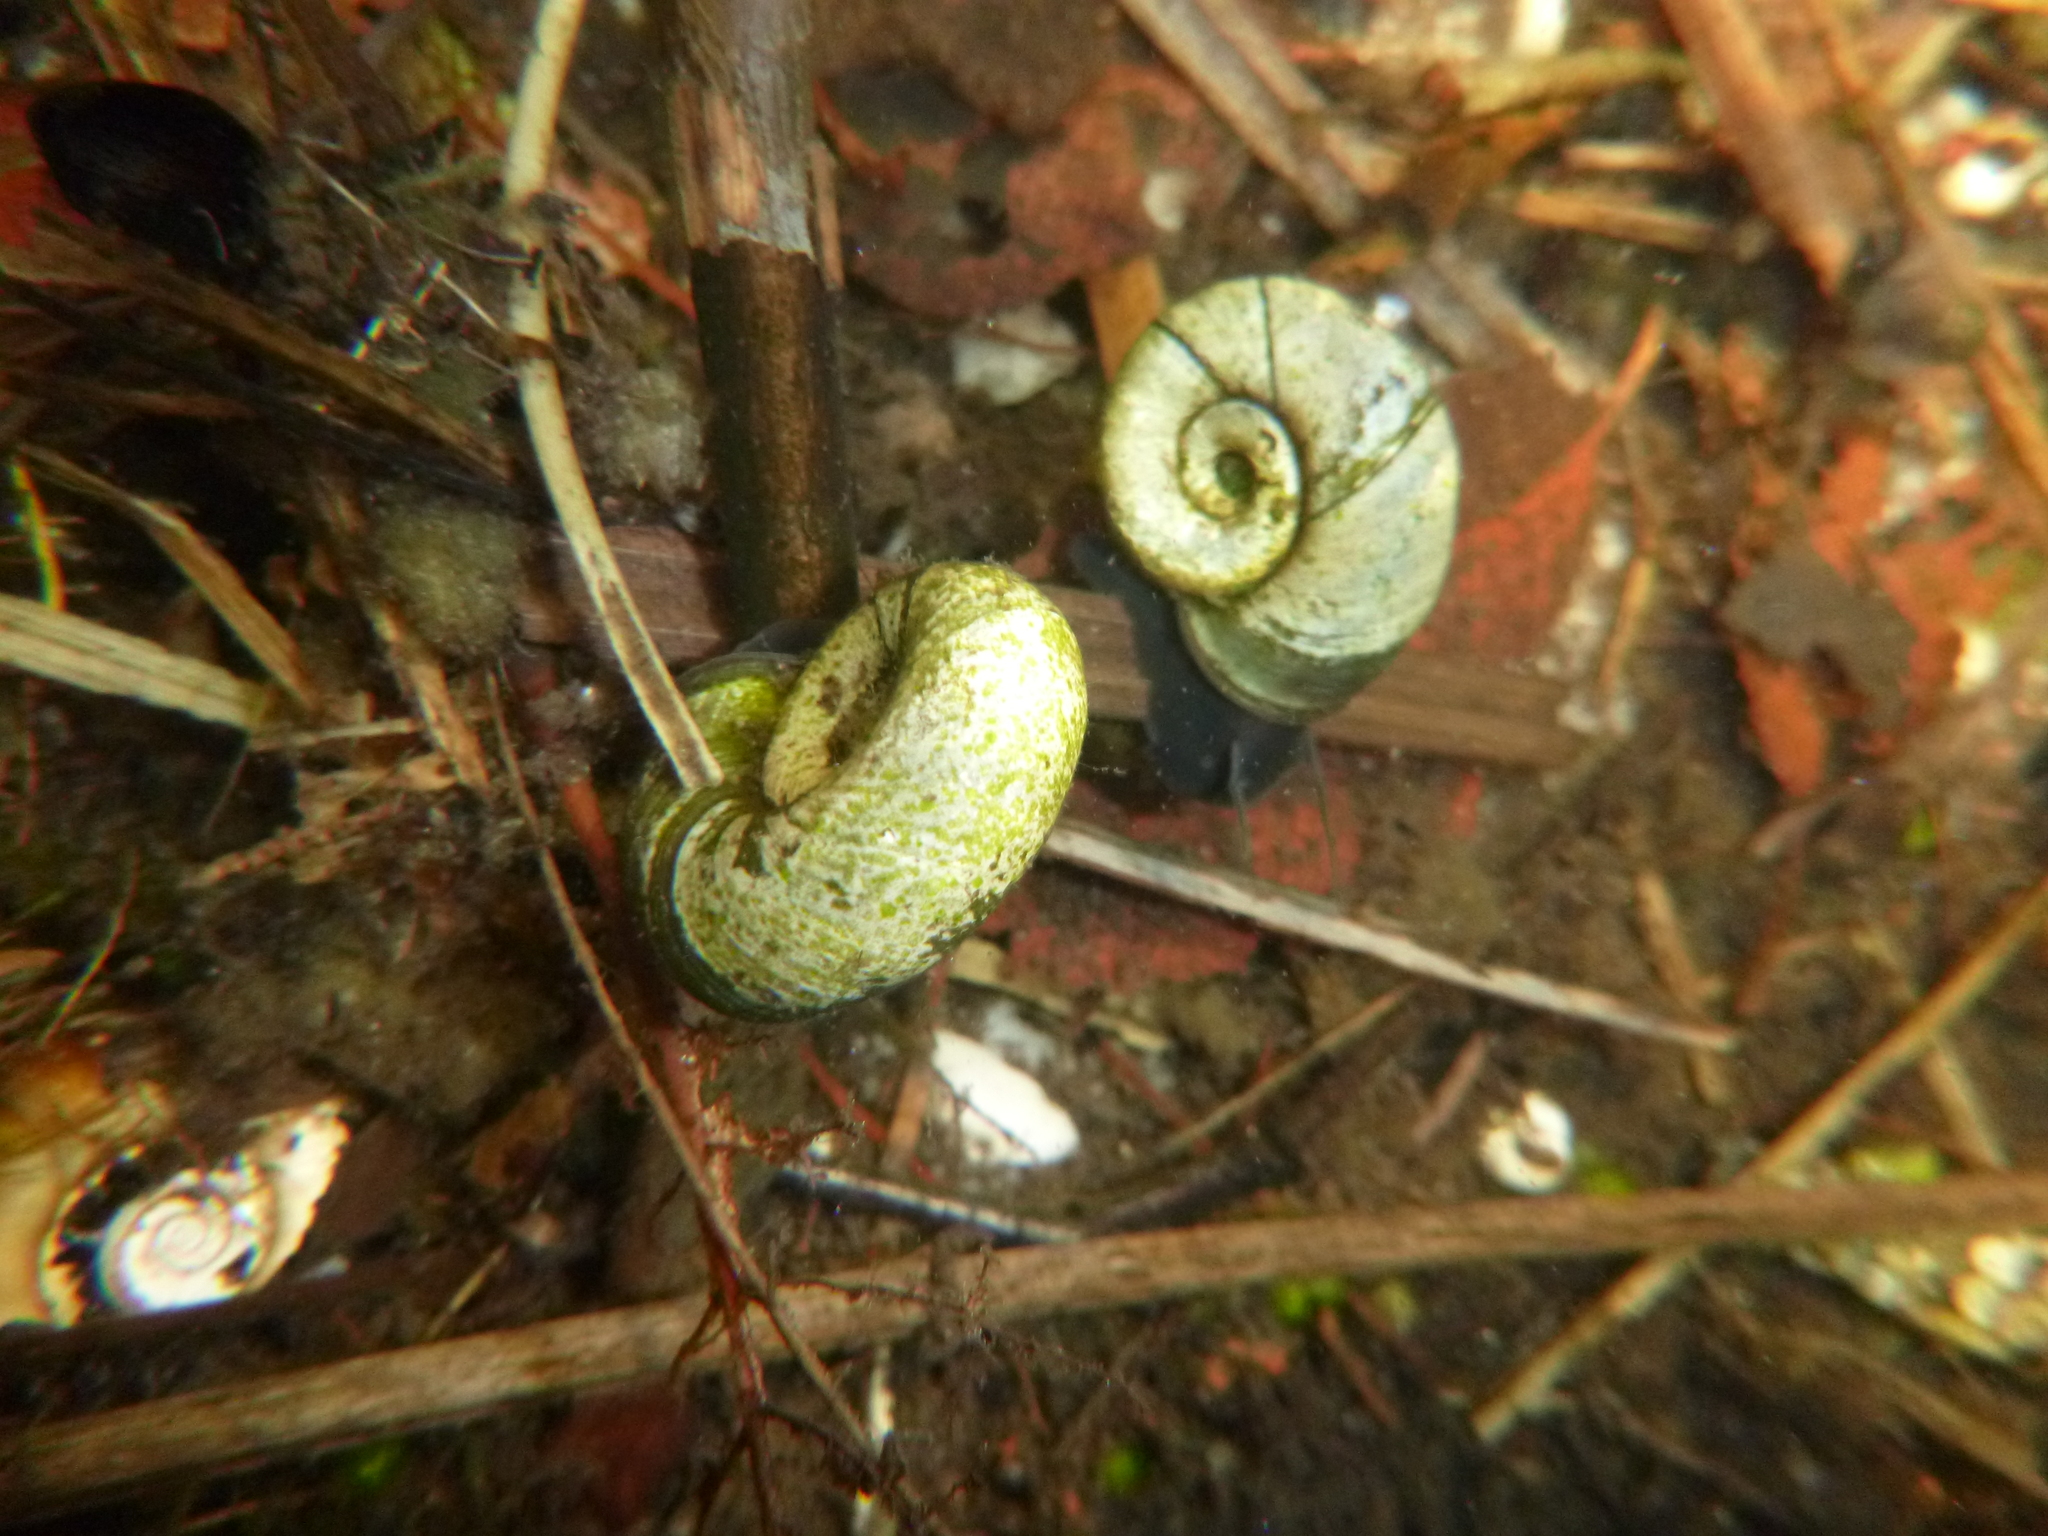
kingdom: Animalia
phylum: Mollusca
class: Gastropoda
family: Planorbidae
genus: Planorbarius
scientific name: Planorbarius corneus
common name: Great ramshorn
